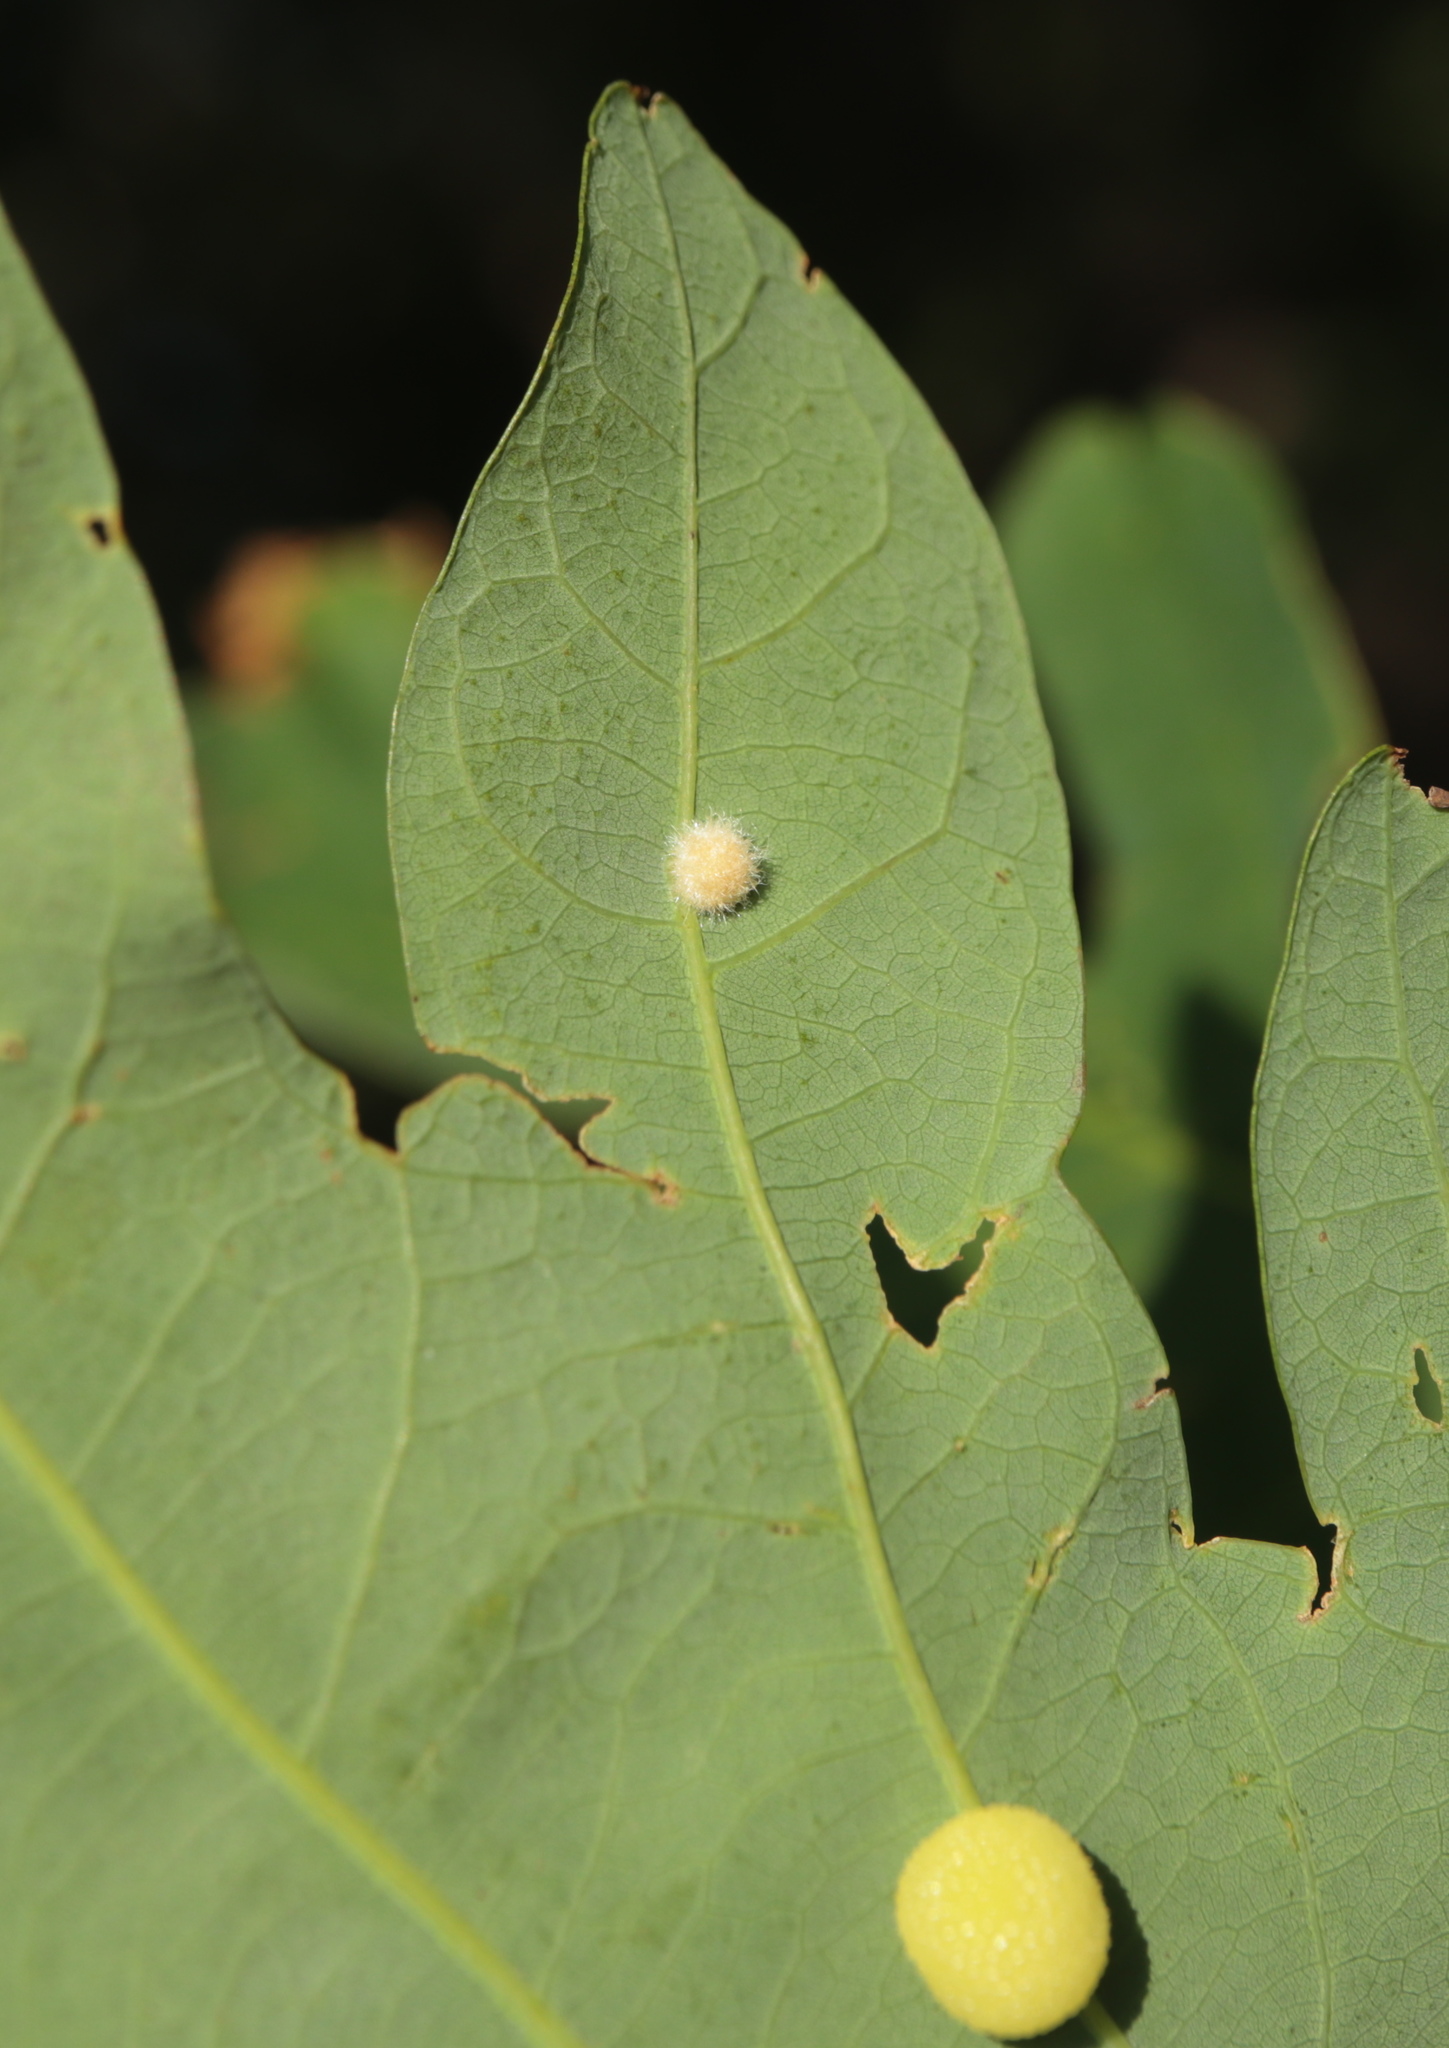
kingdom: Animalia
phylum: Arthropoda
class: Insecta
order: Hymenoptera
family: Cynipidae
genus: Philonix
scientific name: Philonix fulvicollis
